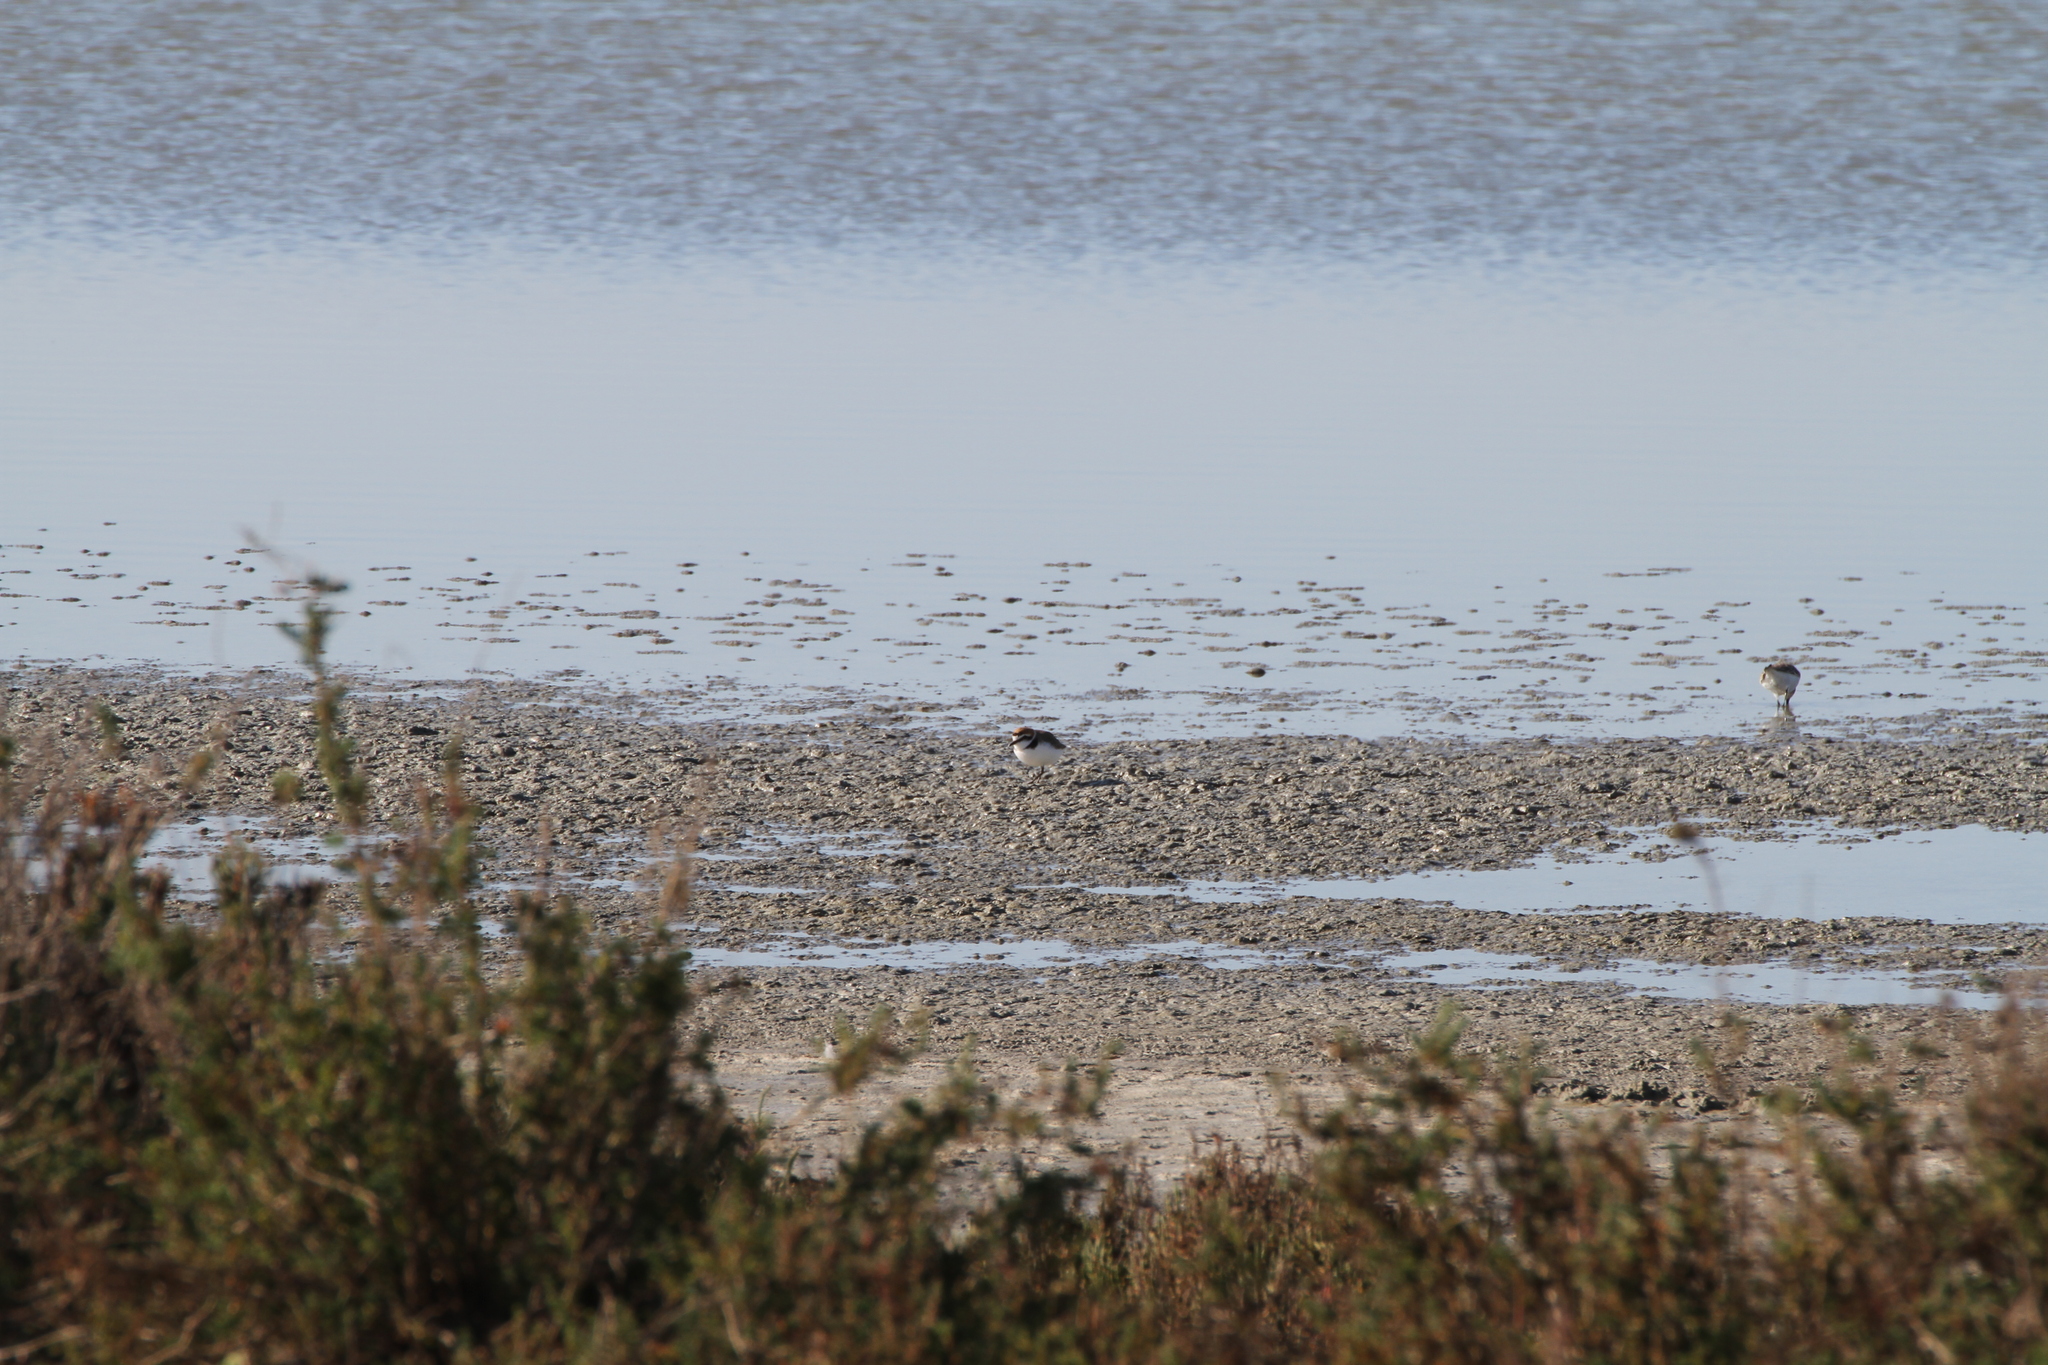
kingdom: Animalia
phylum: Chordata
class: Aves
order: Charadriiformes
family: Charadriidae
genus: Charadrius
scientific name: Charadrius alexandrinus
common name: Kentish plover
